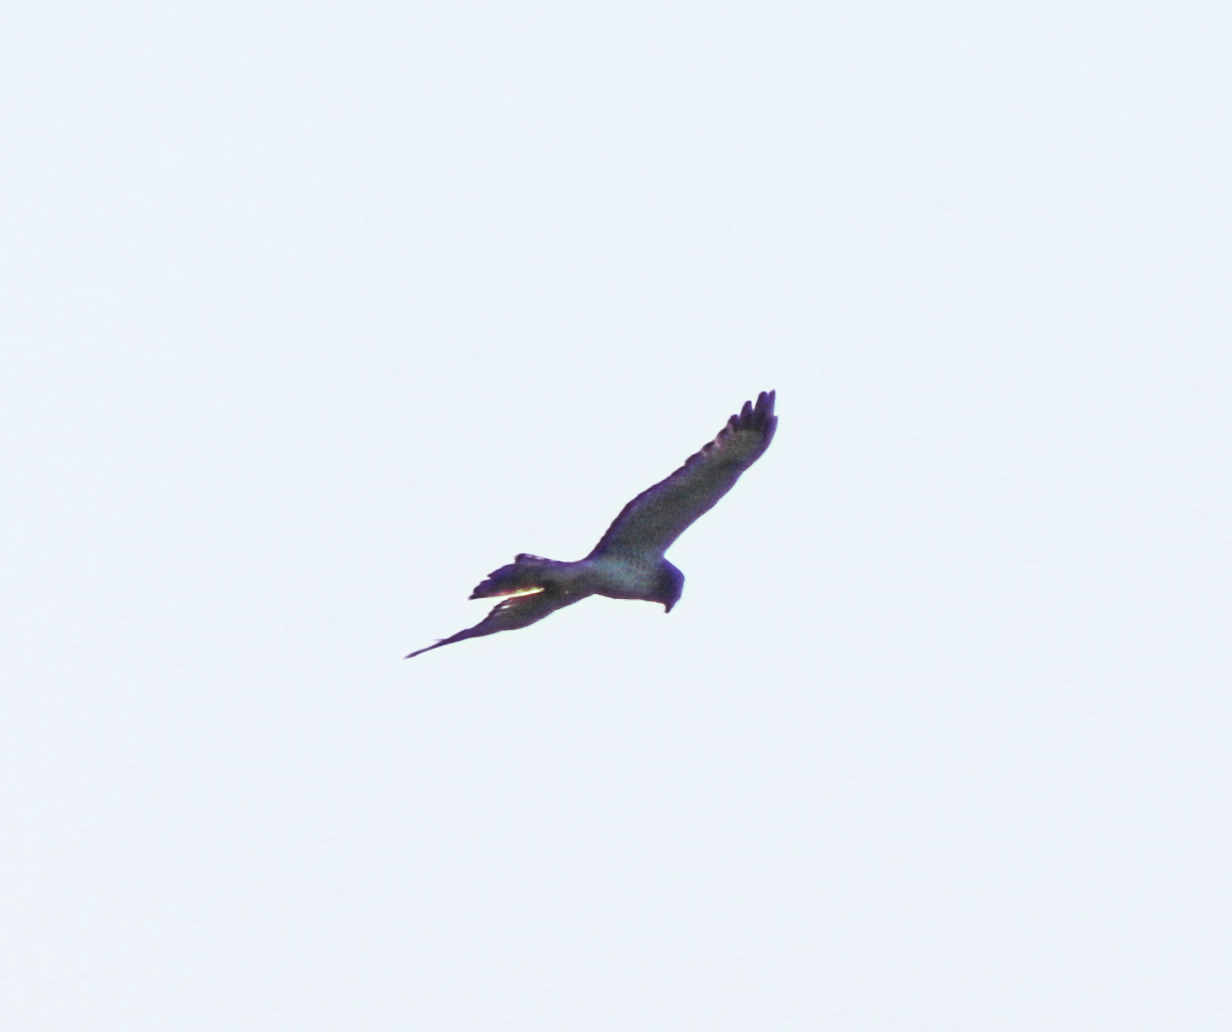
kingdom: Animalia
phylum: Chordata
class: Aves
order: Accipitriformes
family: Accipitridae
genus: Circus
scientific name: Circus cyaneus
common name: Hen harrier
